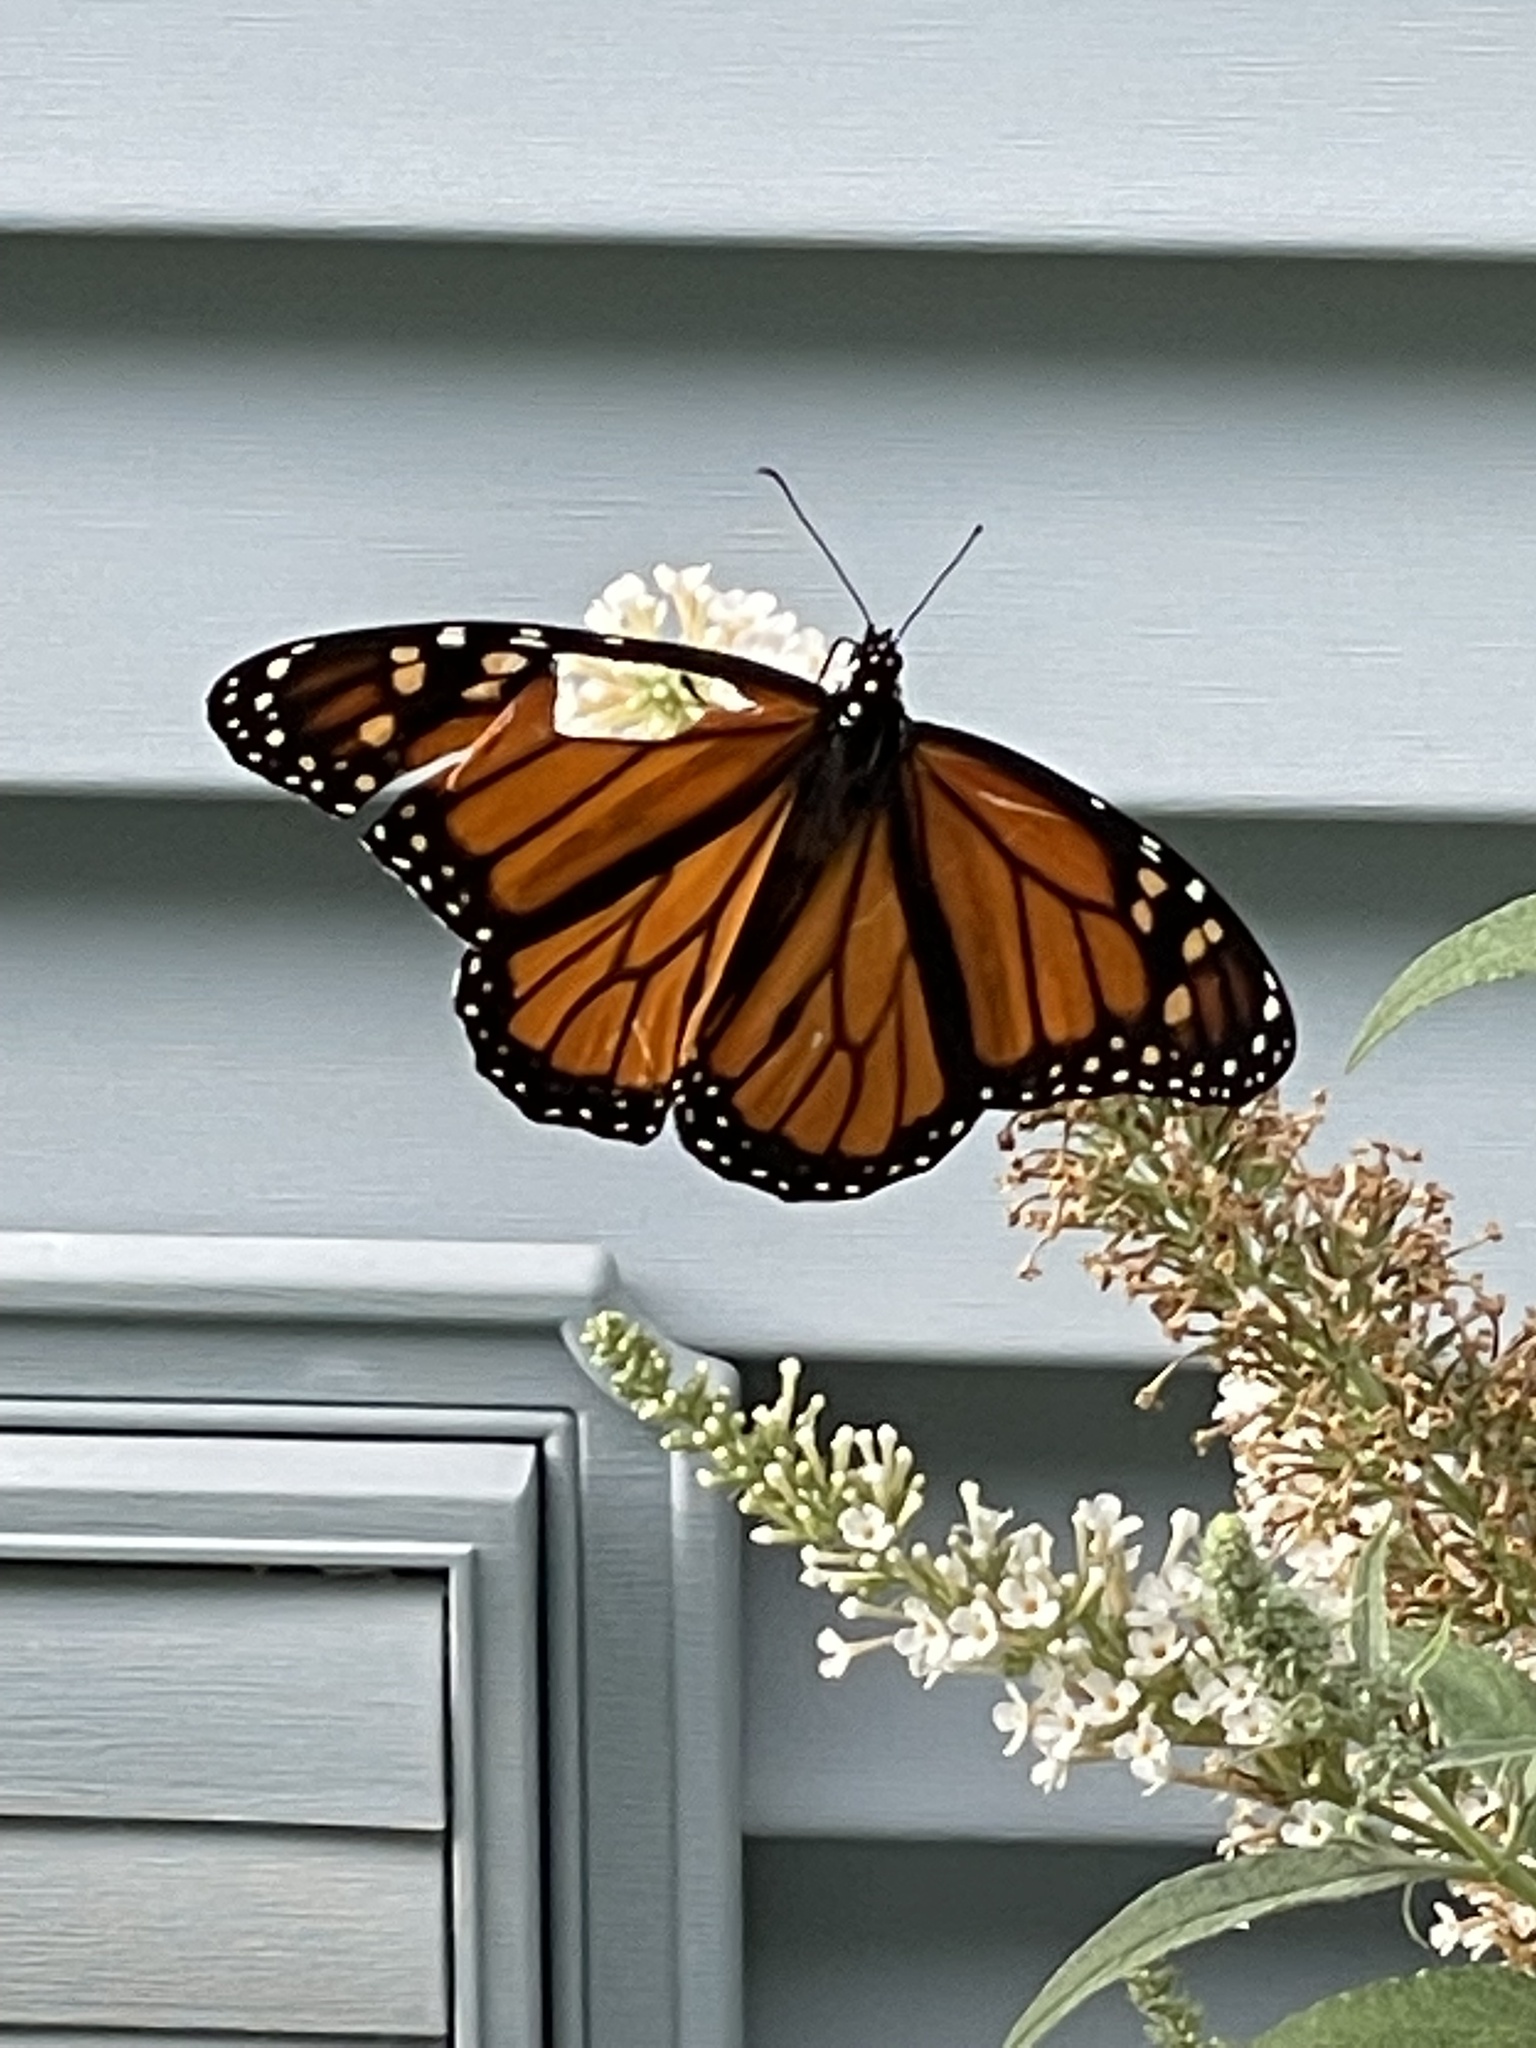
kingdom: Animalia
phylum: Arthropoda
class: Insecta
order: Lepidoptera
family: Nymphalidae
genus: Danaus
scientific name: Danaus plexippus
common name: Monarch
